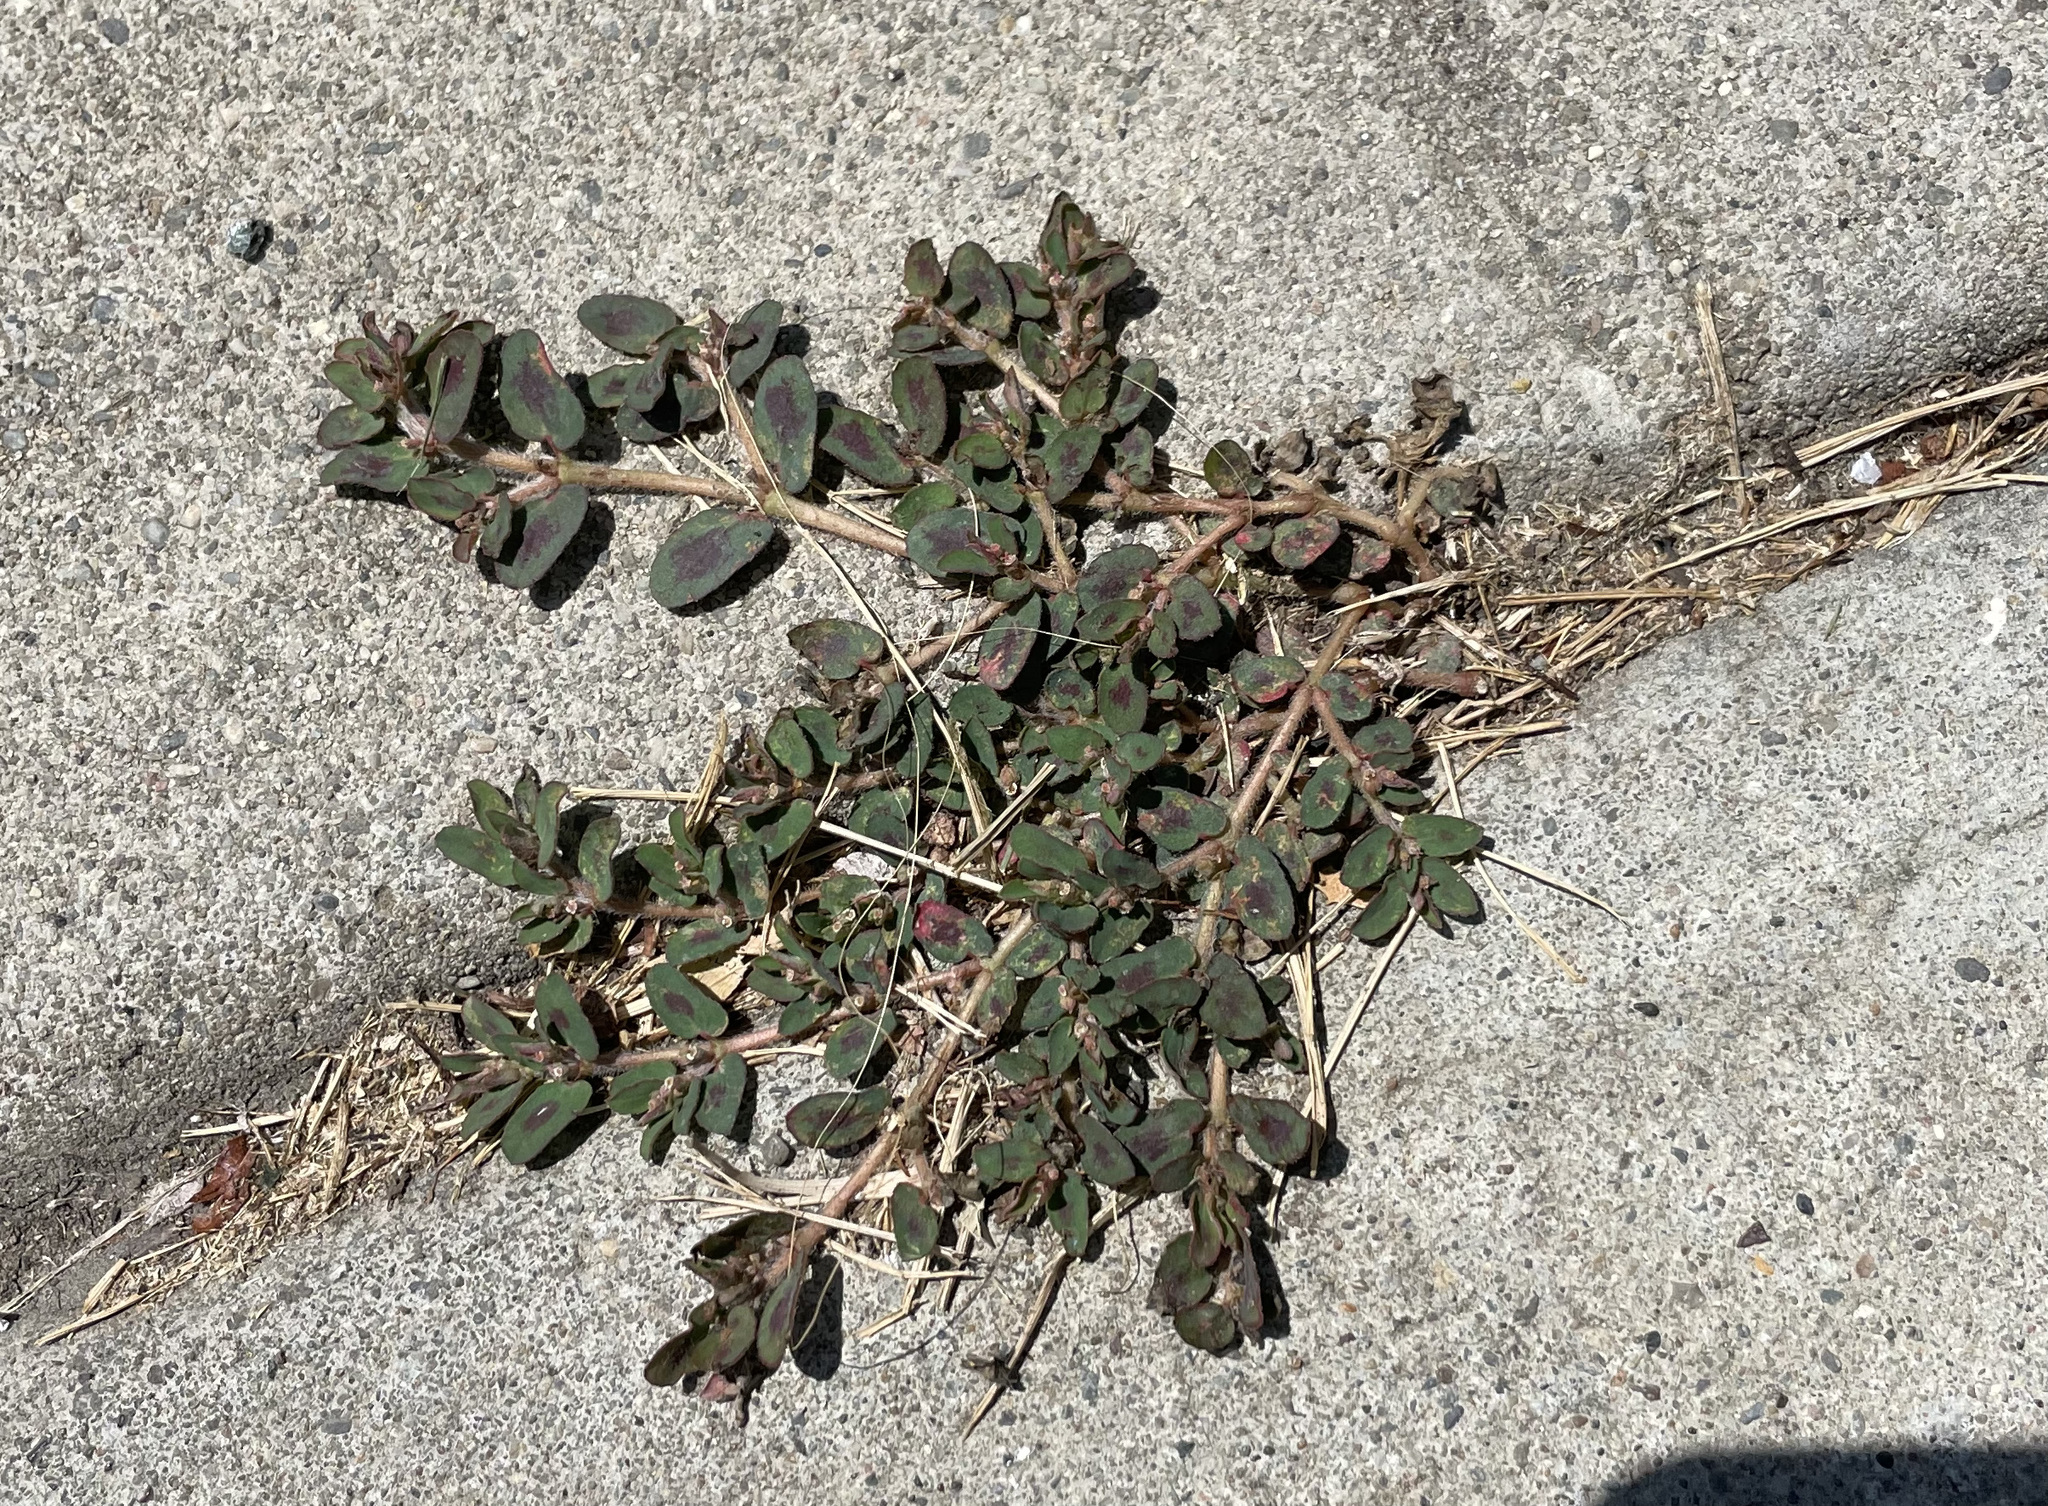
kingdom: Plantae
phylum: Tracheophyta
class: Magnoliopsida
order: Malpighiales
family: Euphorbiaceae
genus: Euphorbia
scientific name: Euphorbia maculata
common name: Spotted spurge
